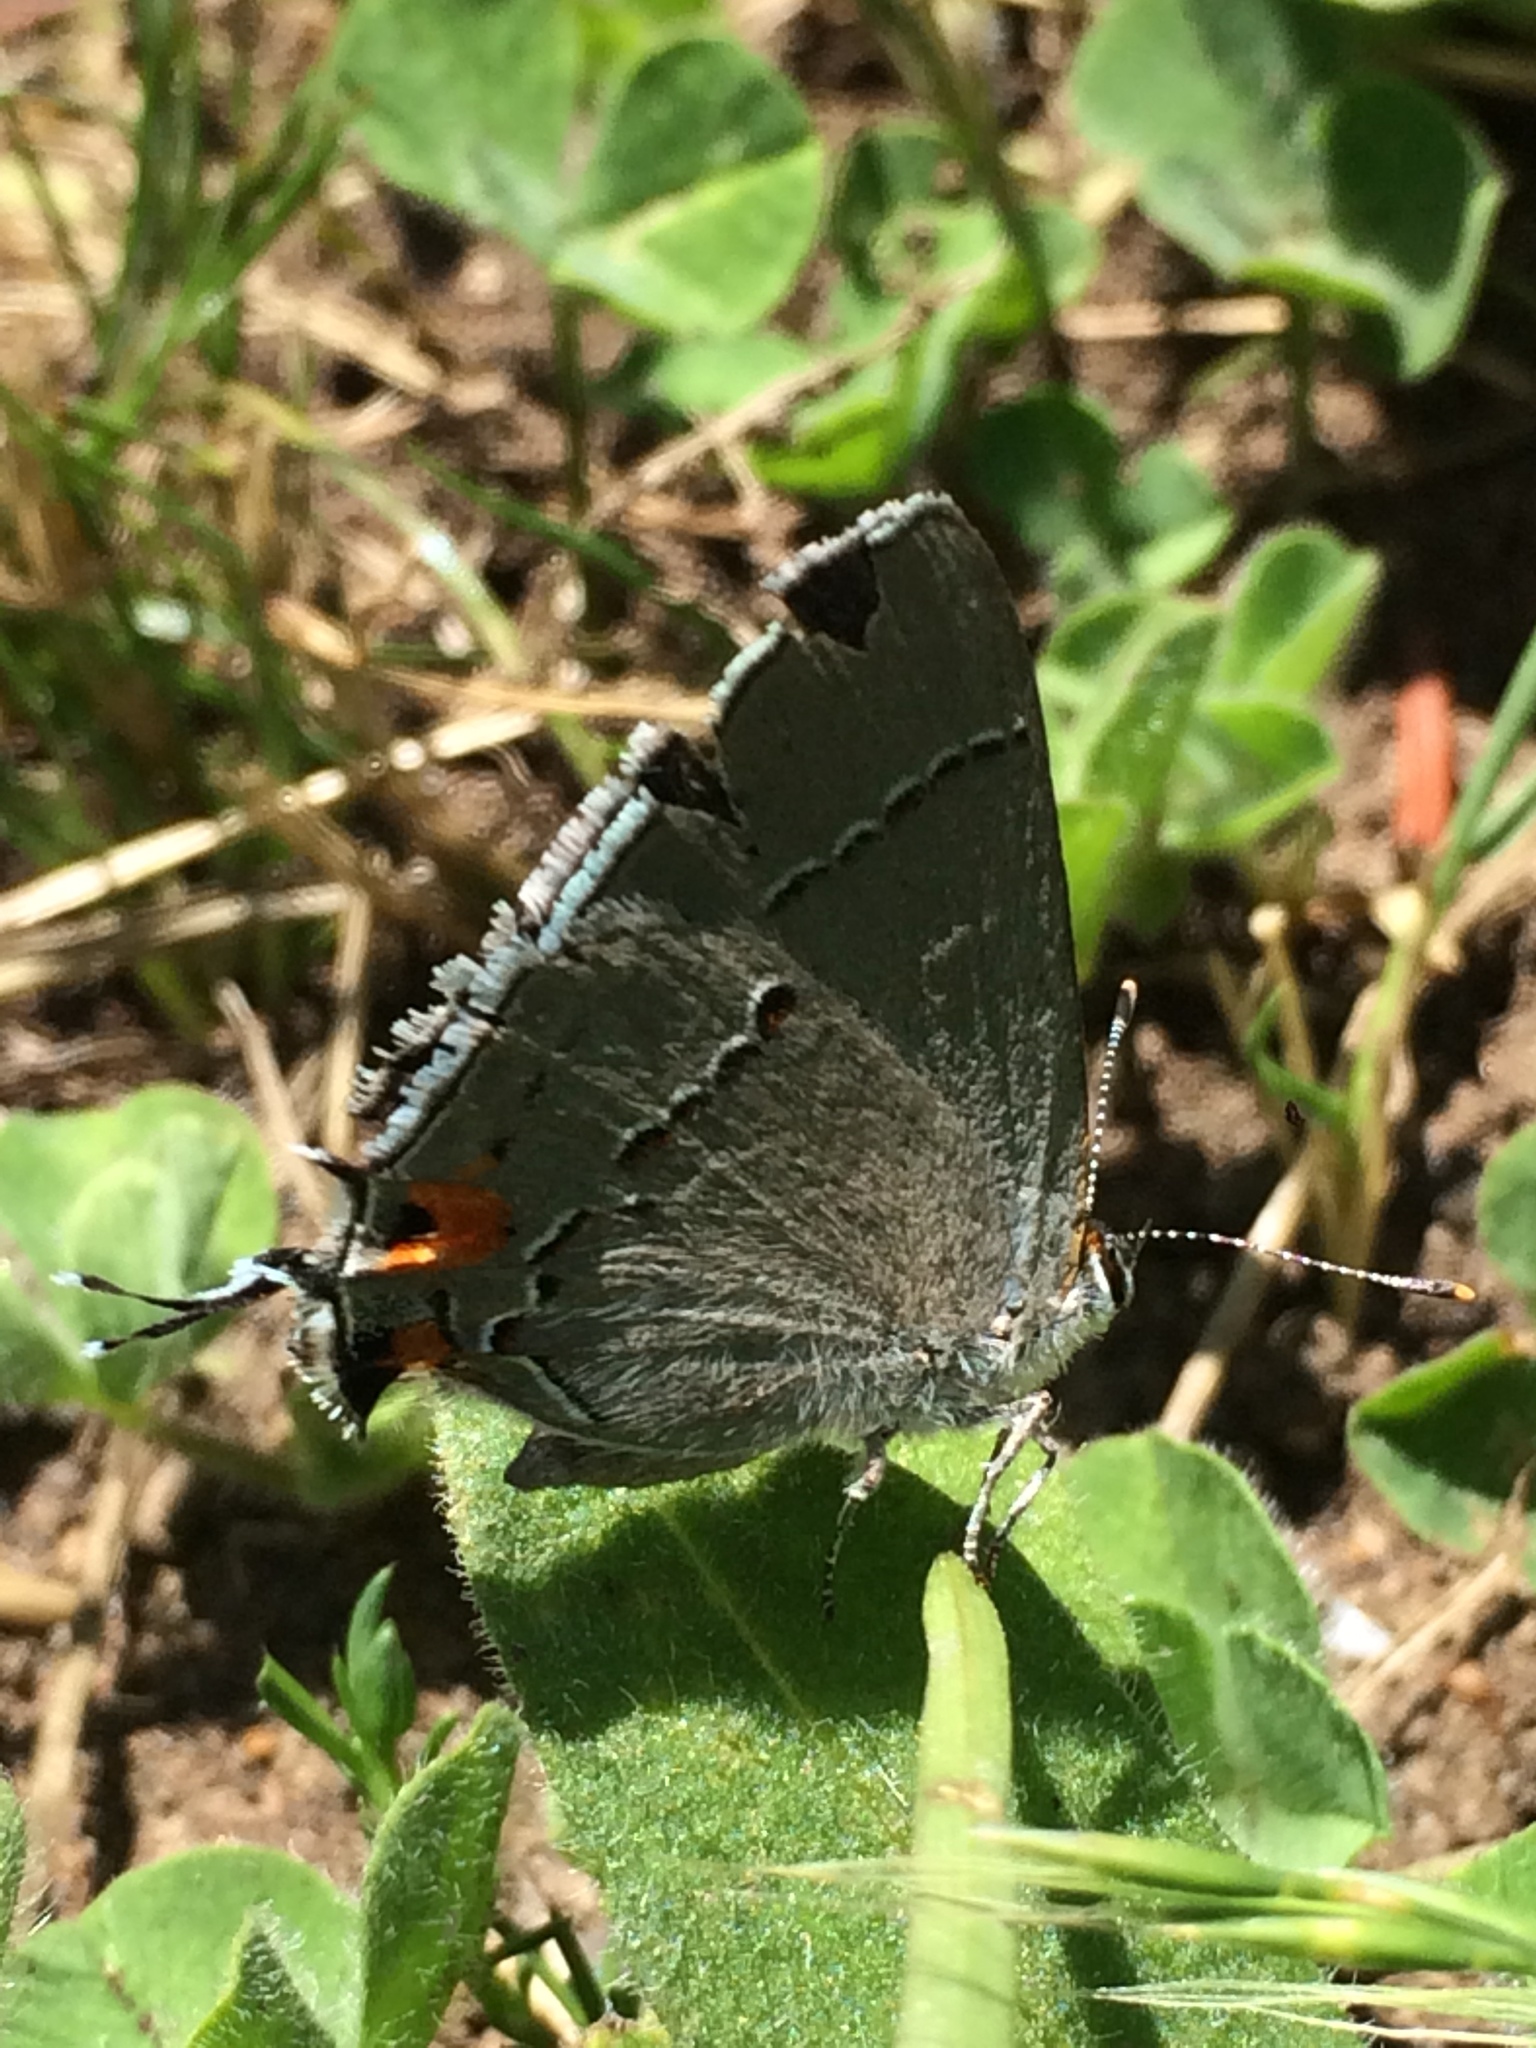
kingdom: Animalia
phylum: Arthropoda
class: Insecta
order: Lepidoptera
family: Lycaenidae
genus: Strymon
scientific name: Strymon melinus
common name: Gray hairstreak
